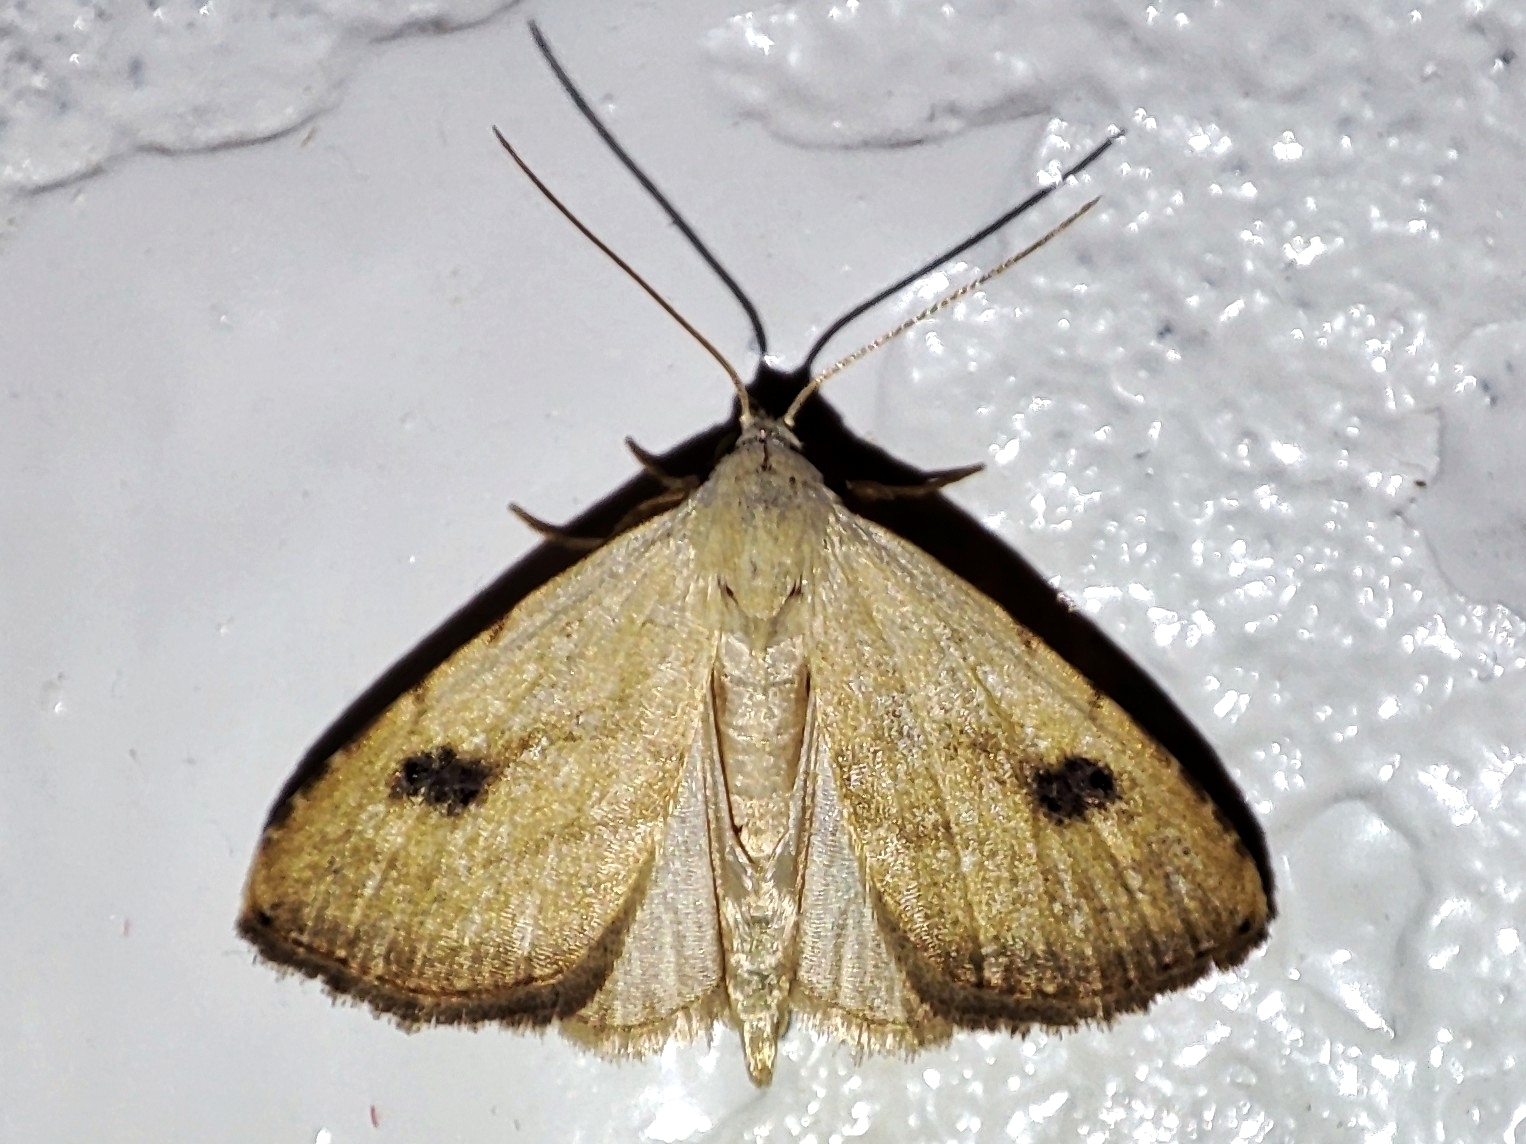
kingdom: Animalia
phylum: Arthropoda
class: Insecta
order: Lepidoptera
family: Erebidae
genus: Rivula
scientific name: Rivula sericealis
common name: Straw dot
